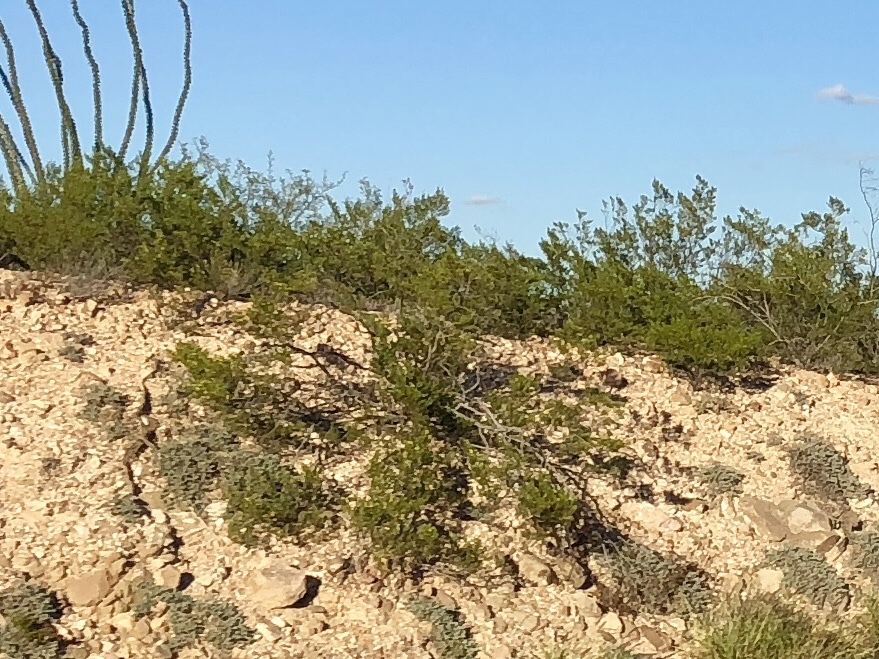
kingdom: Plantae
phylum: Tracheophyta
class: Magnoliopsida
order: Zygophyllales
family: Zygophyllaceae
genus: Larrea
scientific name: Larrea tridentata
